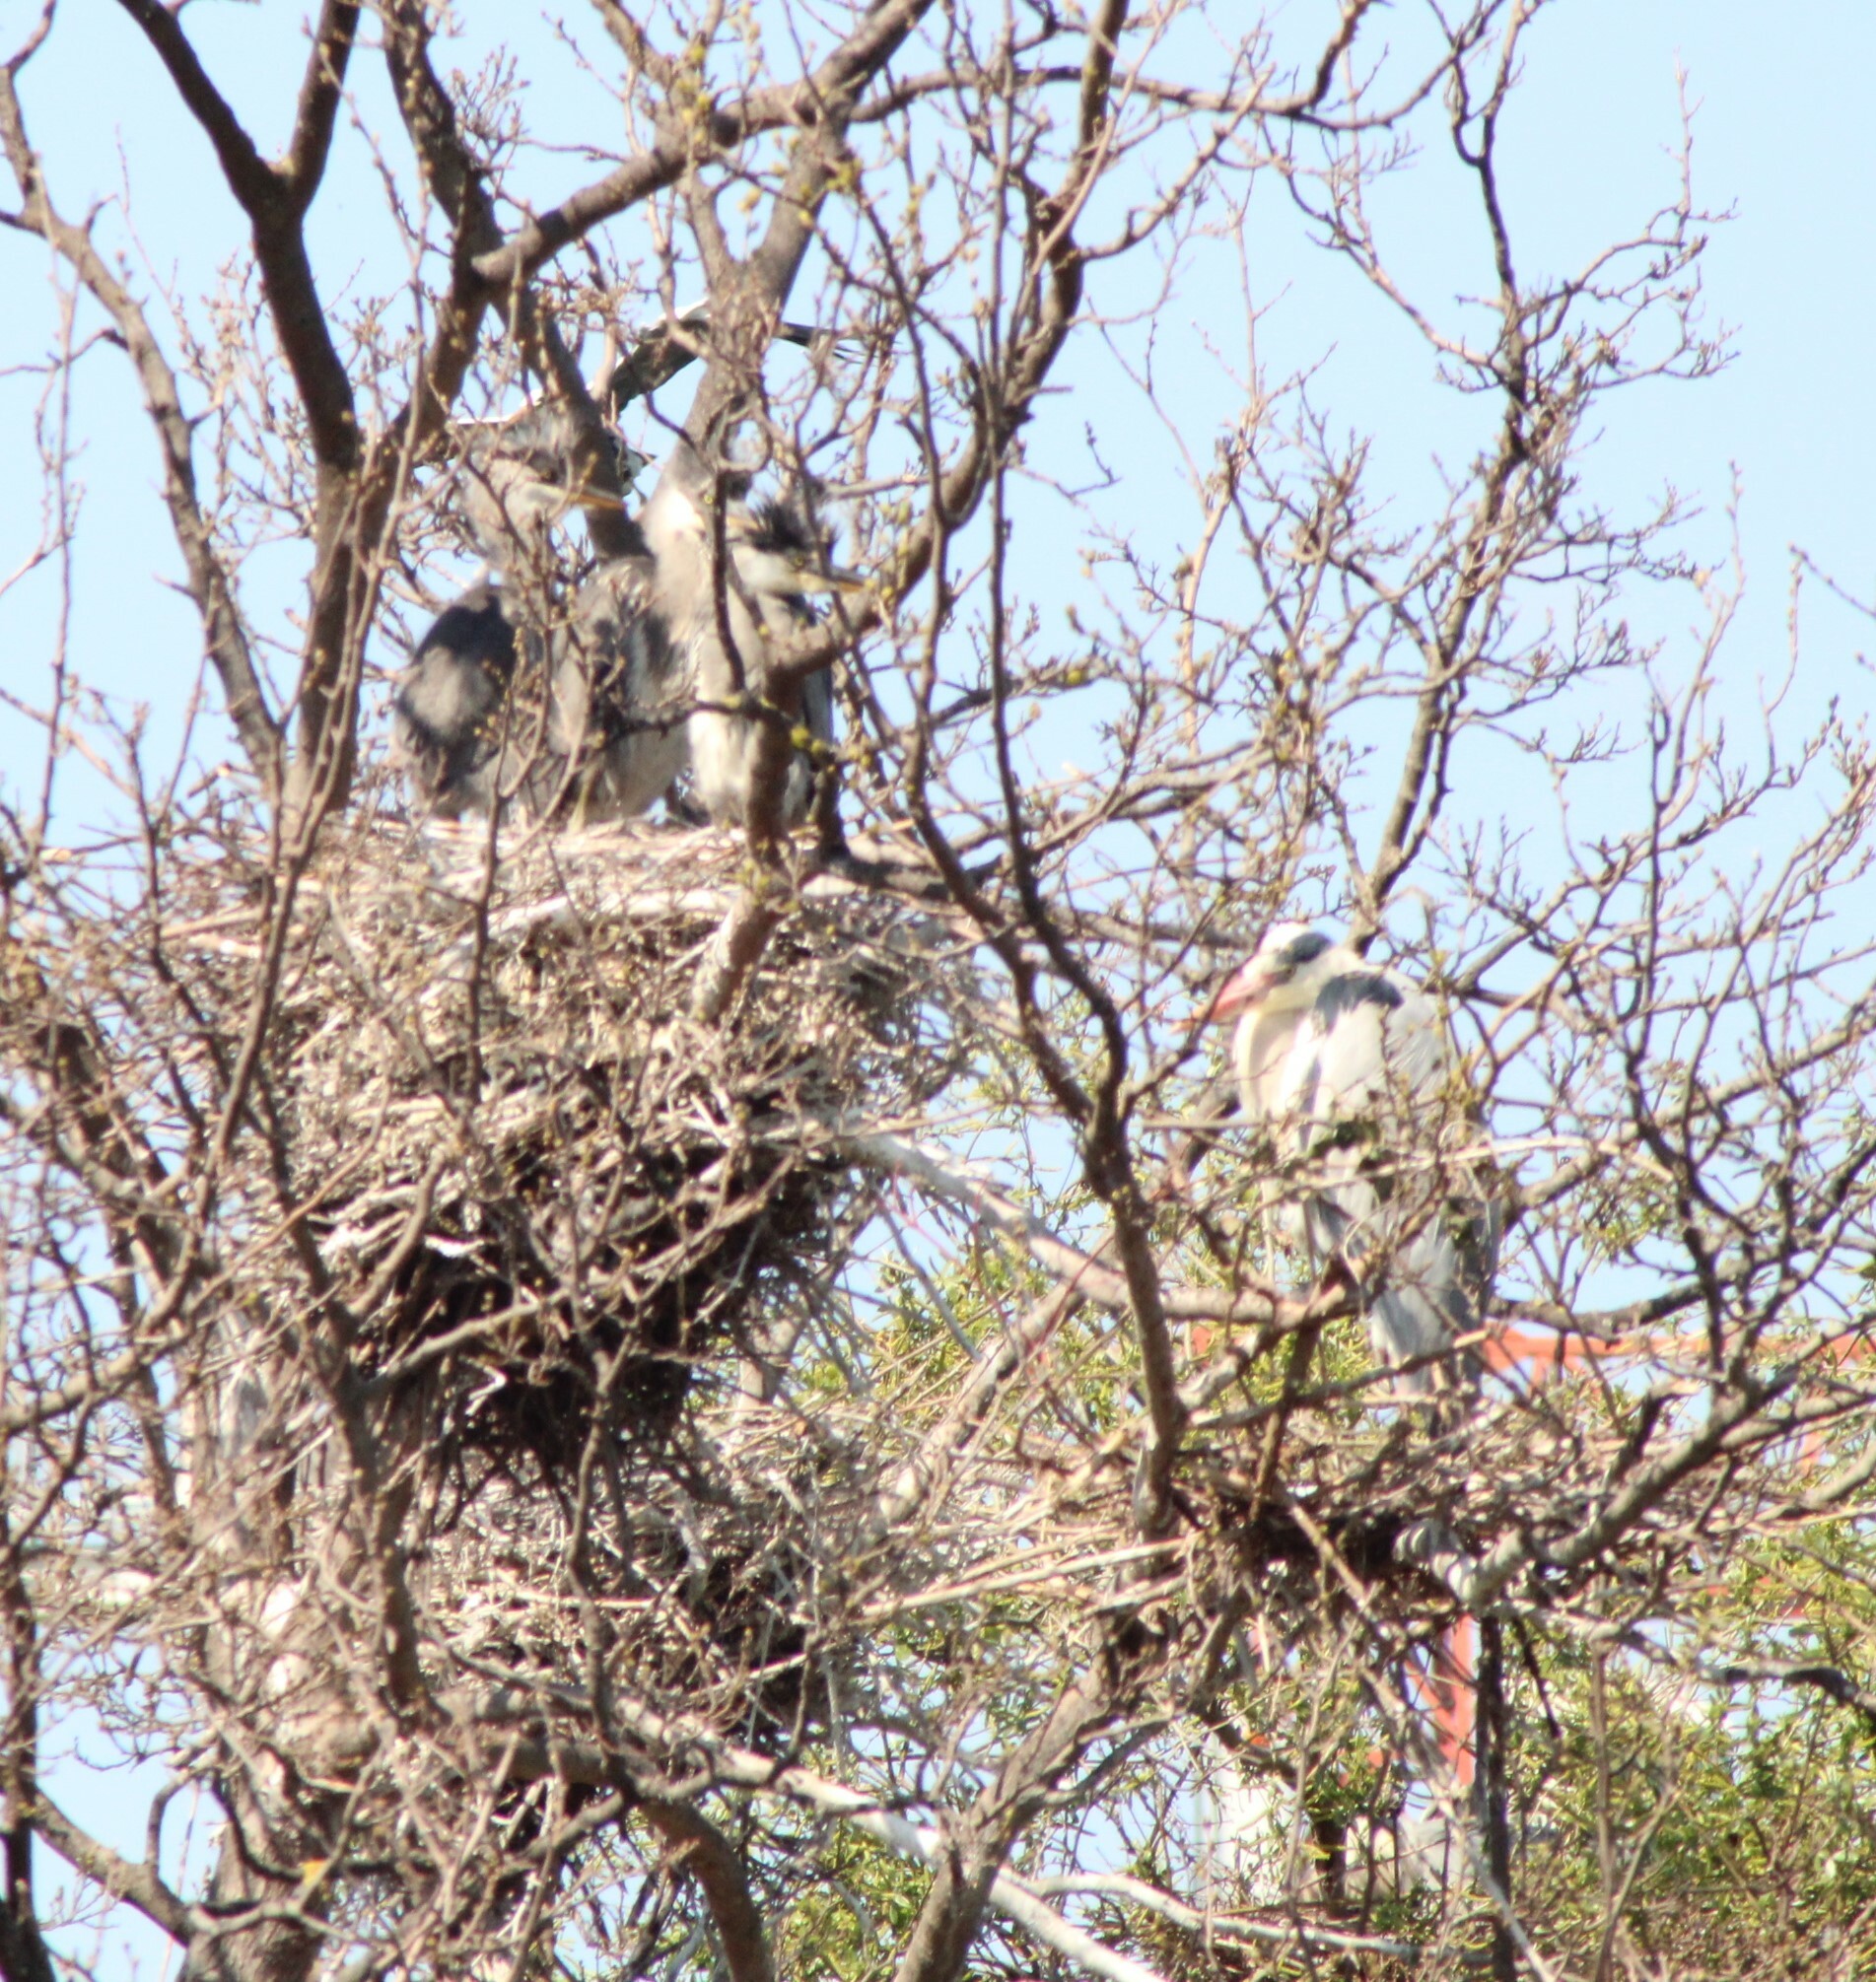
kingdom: Animalia
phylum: Chordata
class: Aves
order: Pelecaniformes
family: Ardeidae
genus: Ardea
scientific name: Ardea cinerea
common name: Grey heron
